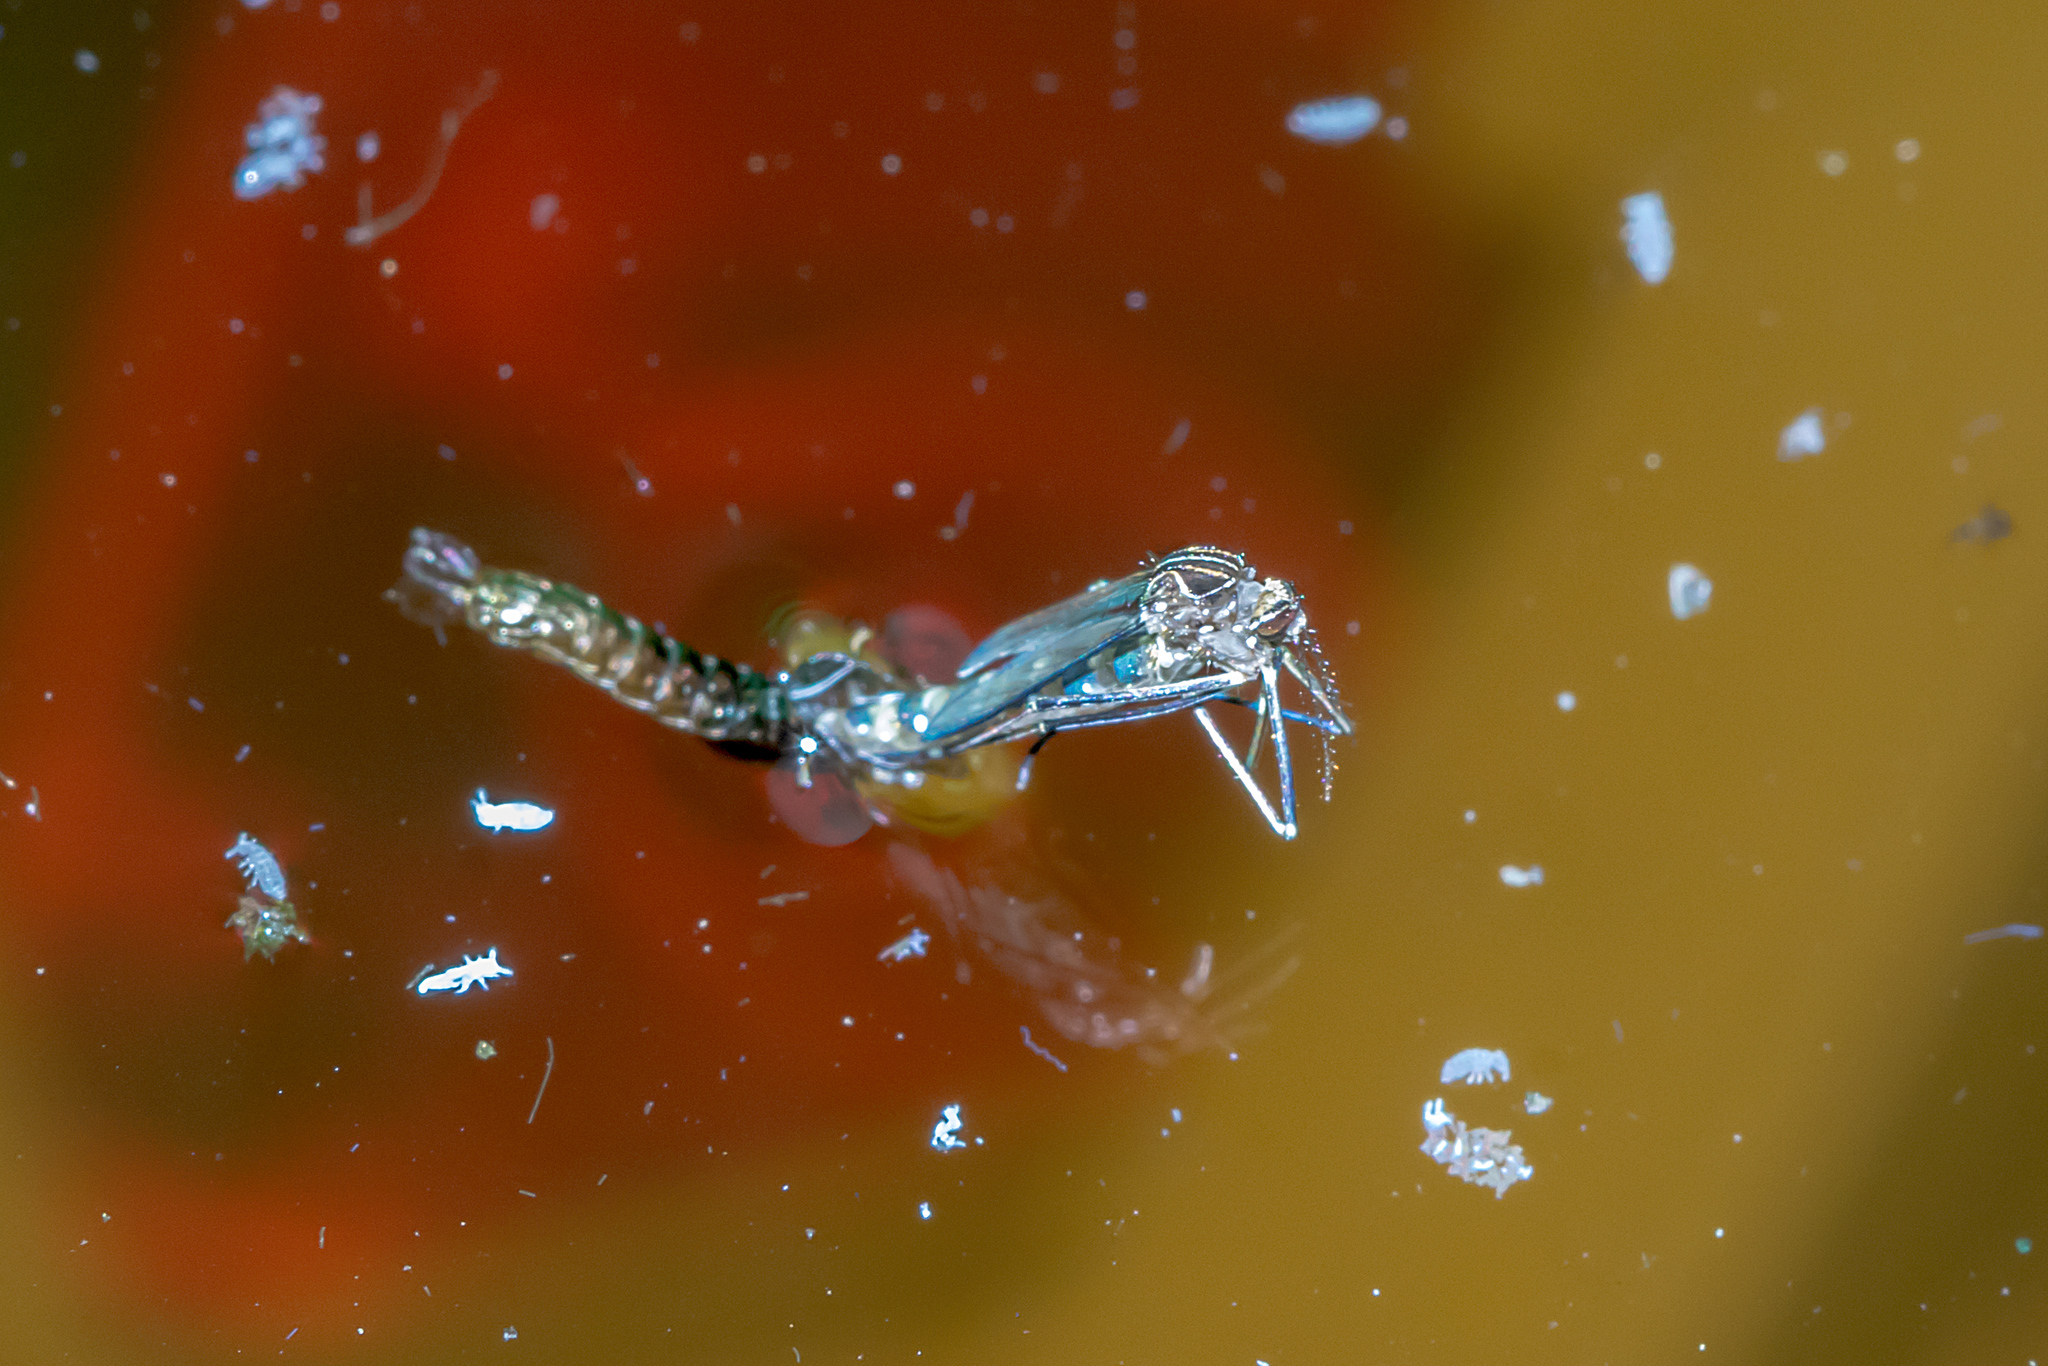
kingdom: Animalia
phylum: Arthropoda
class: Insecta
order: Diptera
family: Culicidae
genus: Aedes
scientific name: Aedes notoscriptus
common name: Australian backyard mosquito
